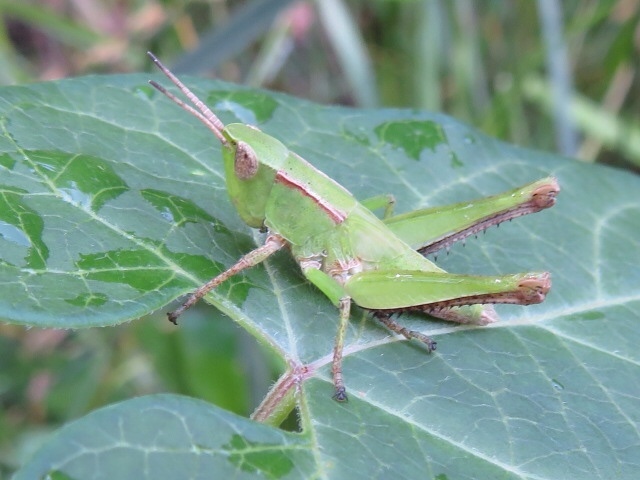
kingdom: Animalia
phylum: Arthropoda
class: Insecta
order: Orthoptera
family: Acrididae
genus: Dichromorpha
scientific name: Dichromorpha viridis
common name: Short-winged green grasshopper
